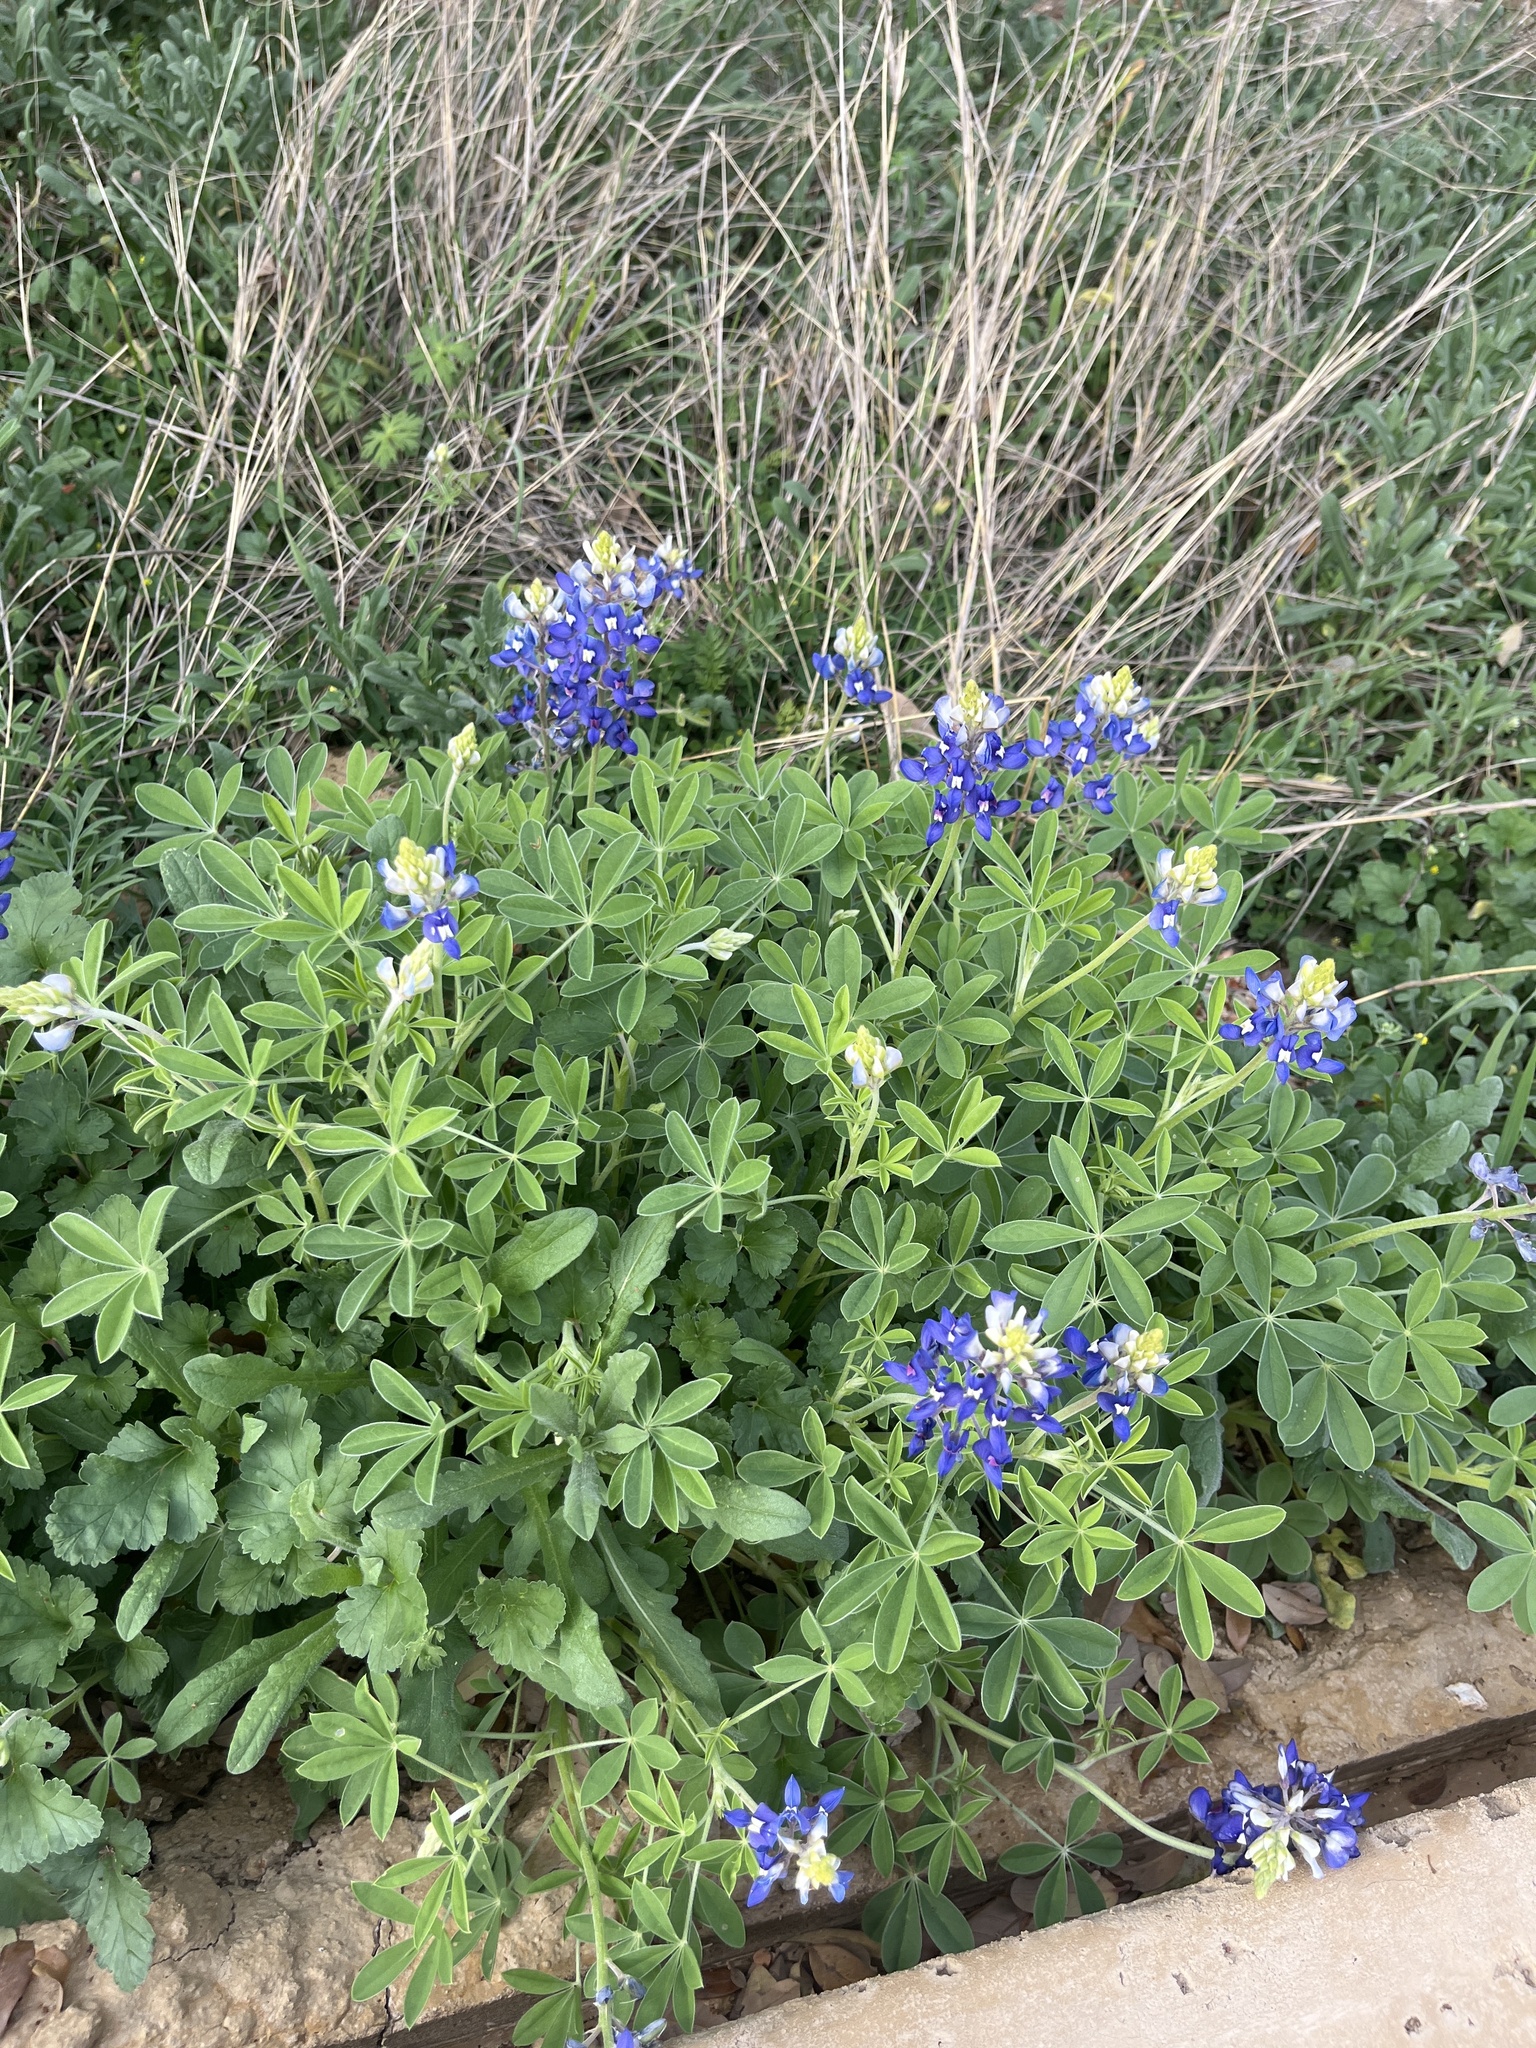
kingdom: Plantae
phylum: Tracheophyta
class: Magnoliopsida
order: Fabales
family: Fabaceae
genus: Lupinus
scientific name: Lupinus texensis
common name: Texas bluebonnet
